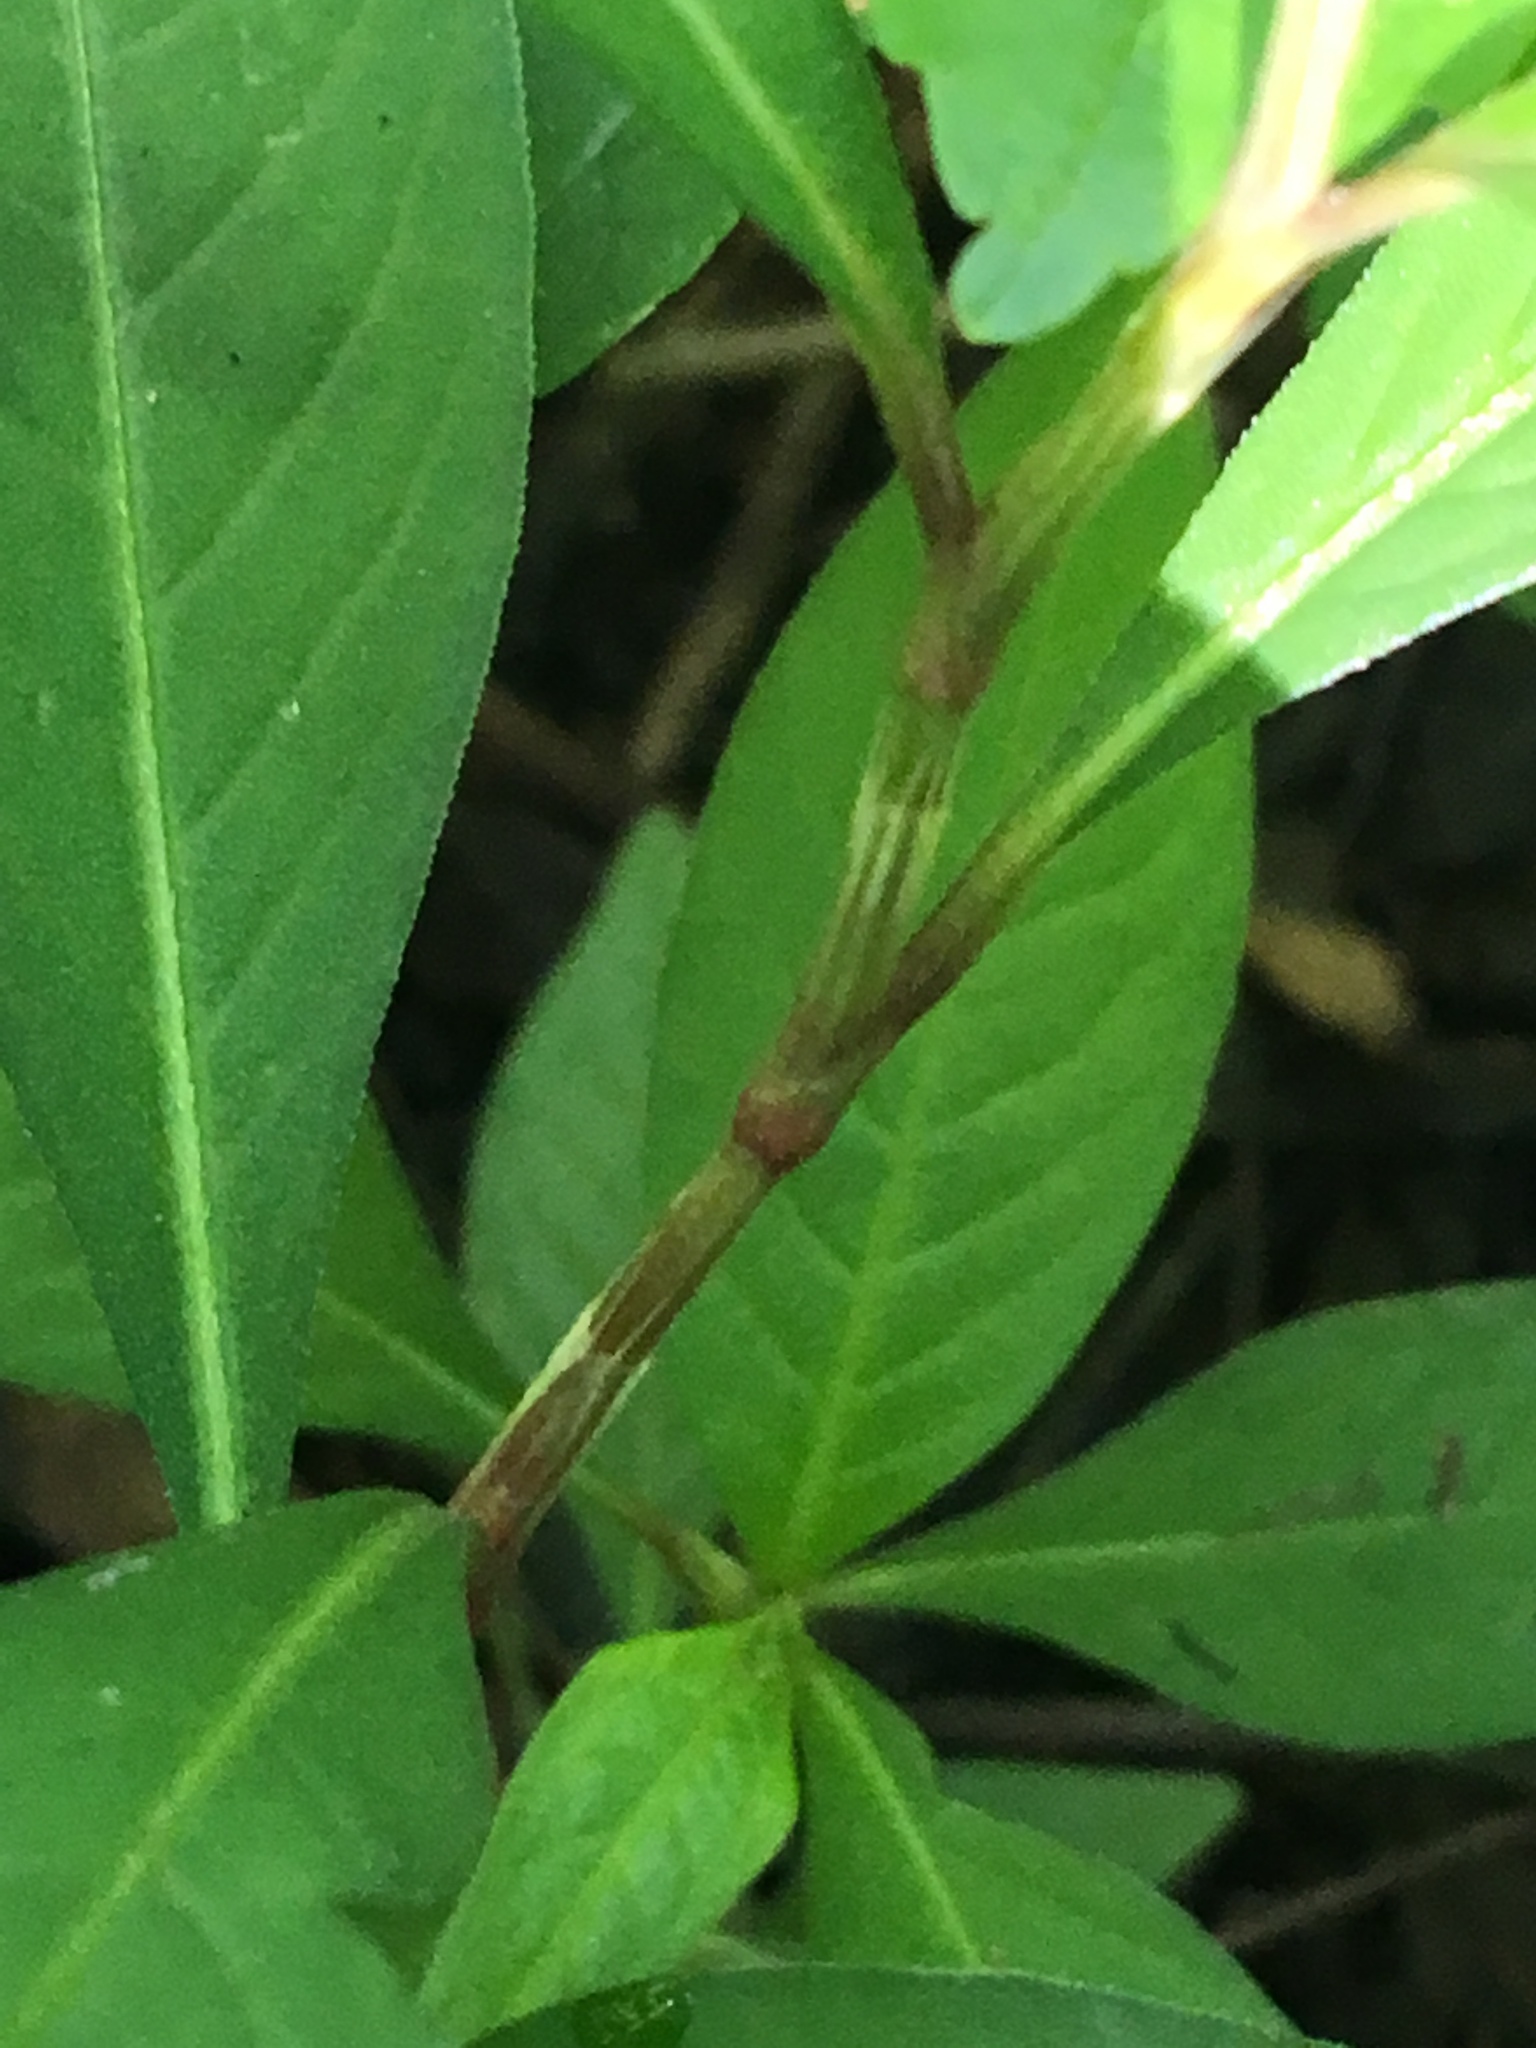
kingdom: Plantae
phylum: Tracheophyta
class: Magnoliopsida
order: Caryophyllales
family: Polygonaceae
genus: Persicaria
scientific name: Persicaria hydropiper
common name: Water-pepper
